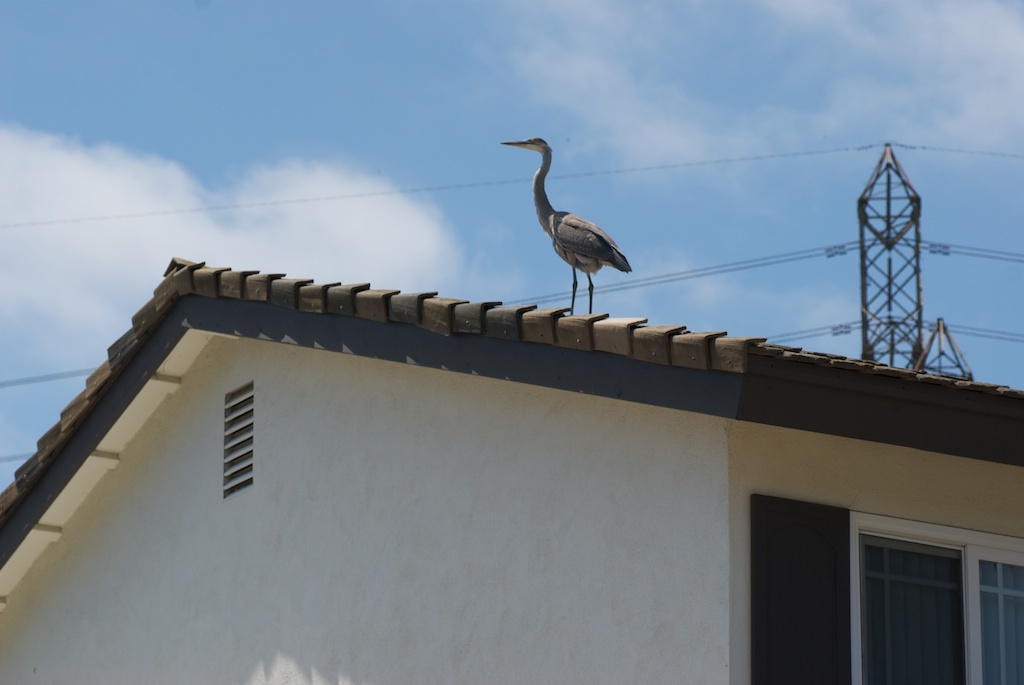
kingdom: Animalia
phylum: Chordata
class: Aves
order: Pelecaniformes
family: Ardeidae
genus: Ardea
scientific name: Ardea herodias
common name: Great blue heron
